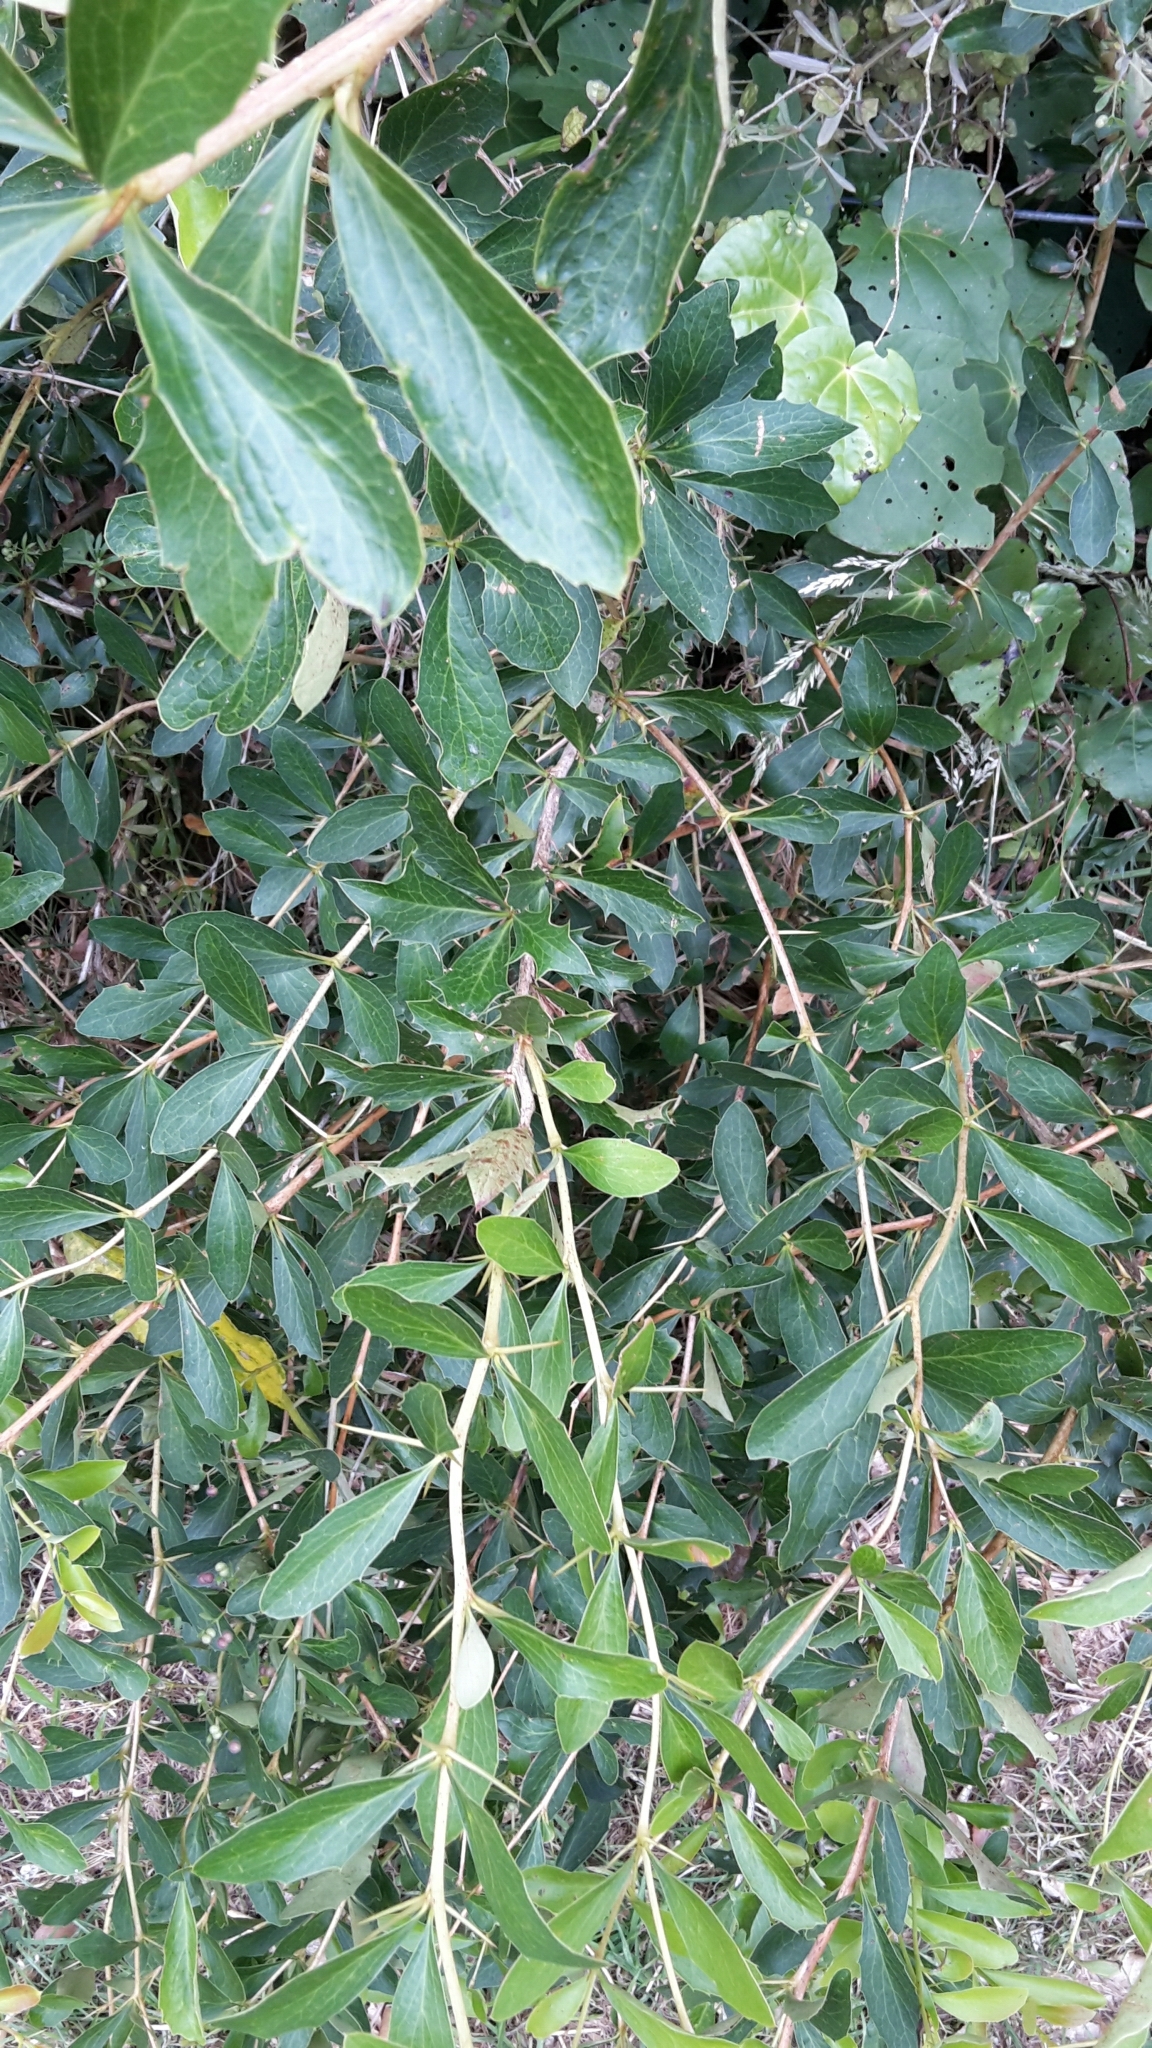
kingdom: Plantae
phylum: Tracheophyta
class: Magnoliopsida
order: Ranunculales
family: Berberidaceae
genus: Berberis
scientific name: Berberis glaucocarpa
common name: Great barberry
